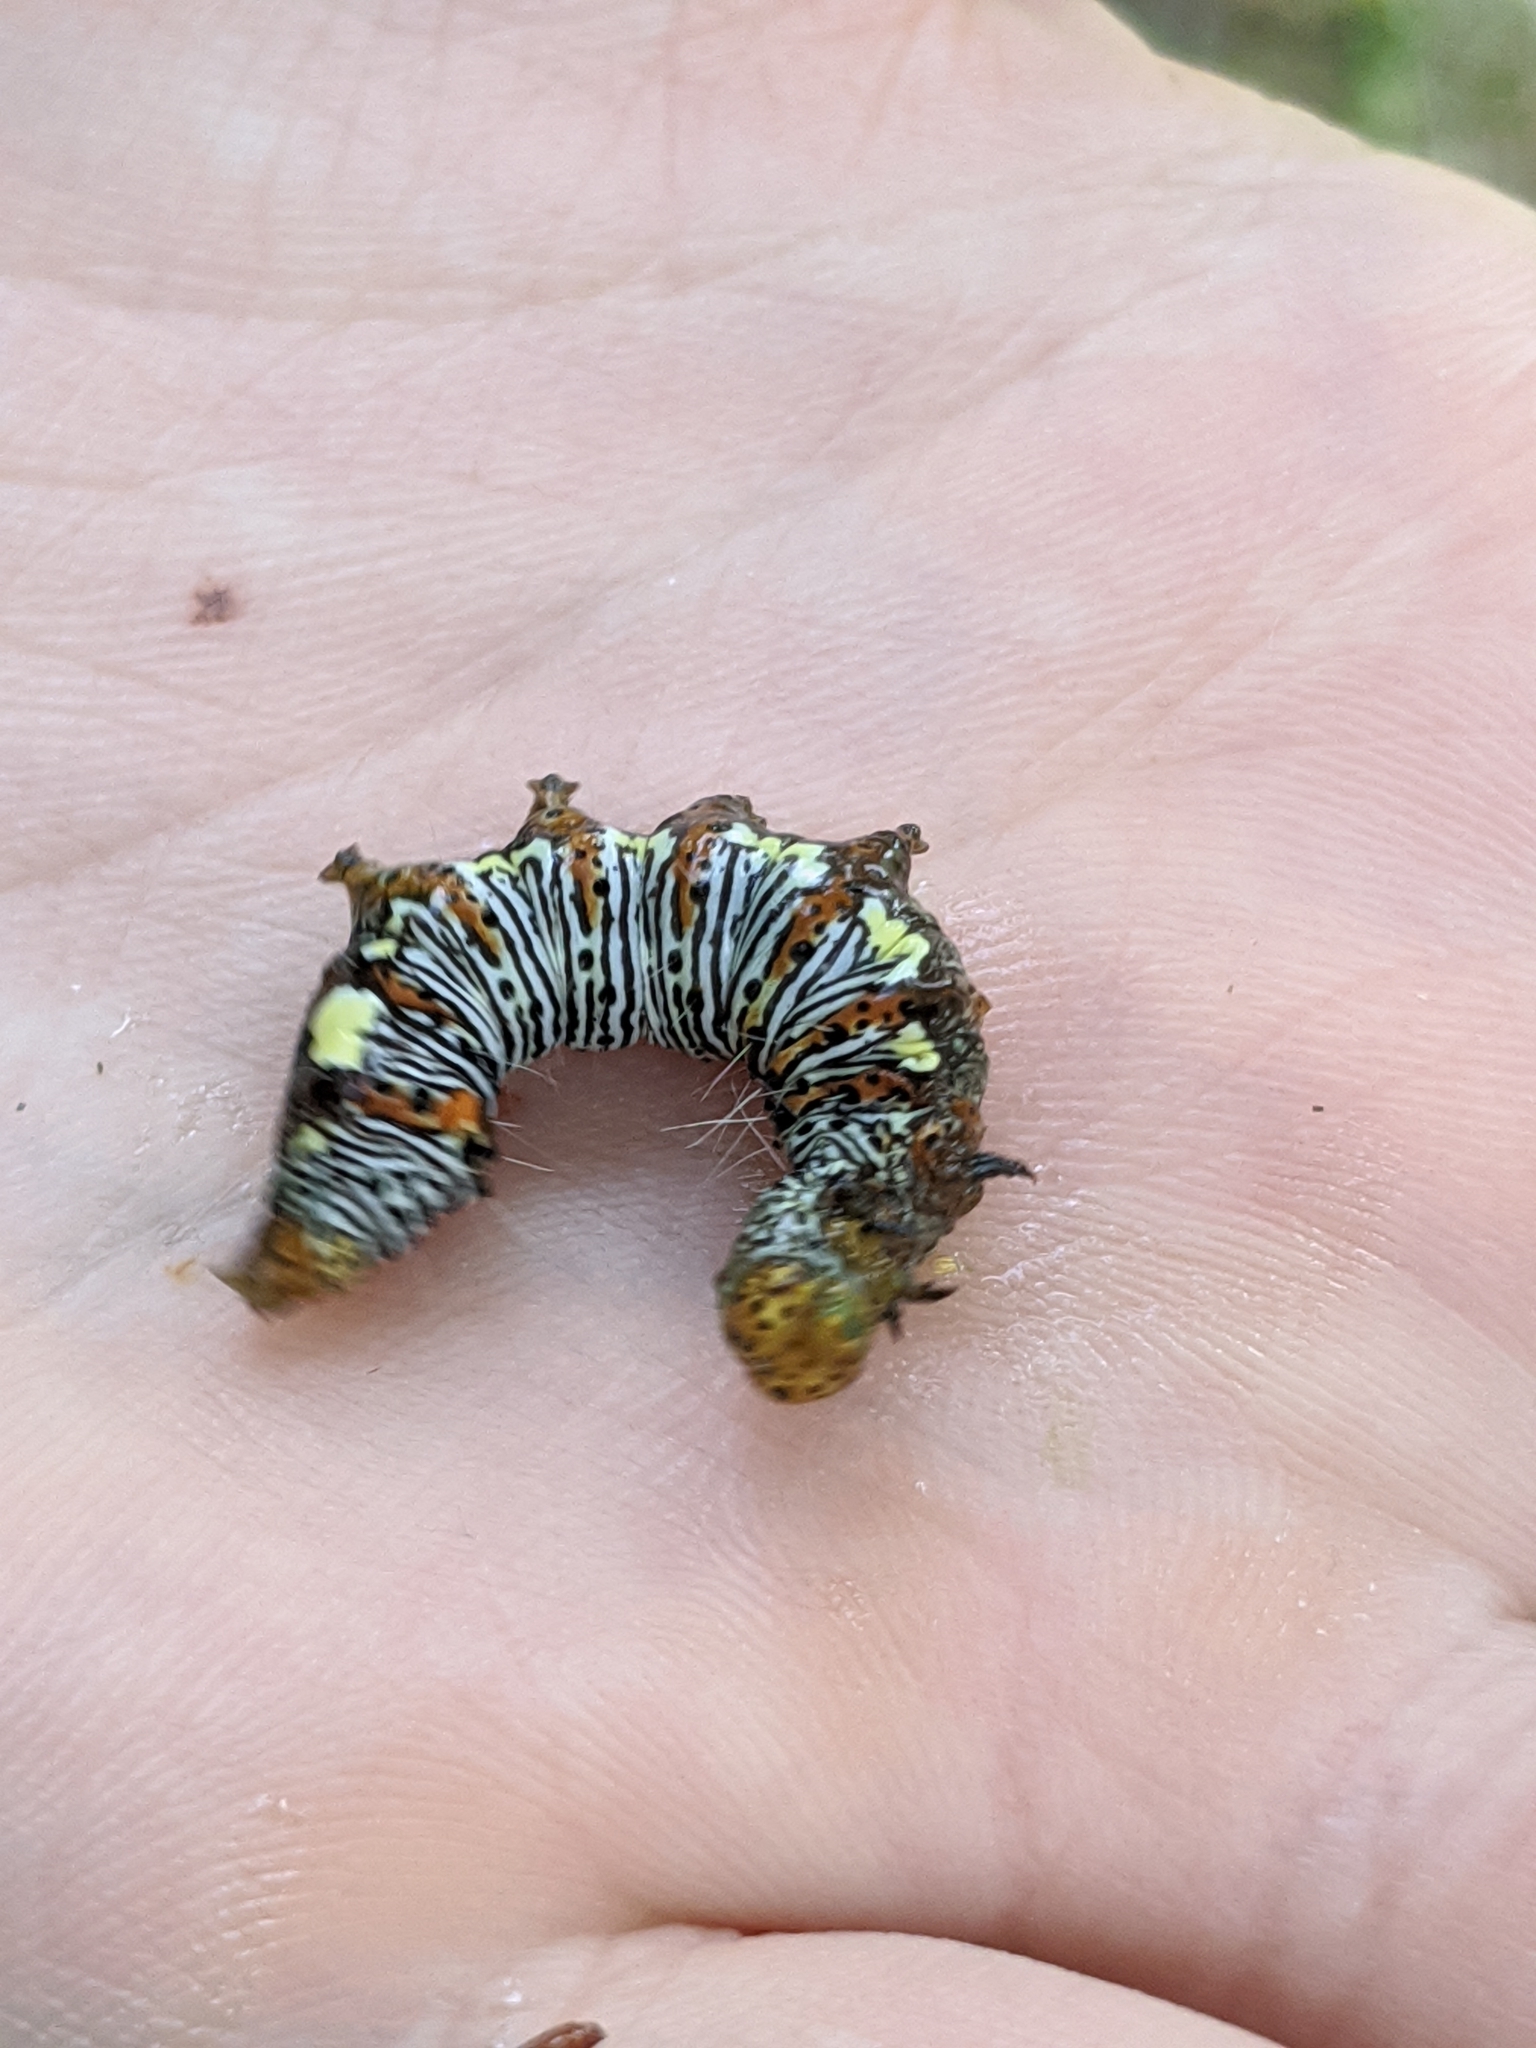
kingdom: Animalia
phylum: Arthropoda
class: Insecta
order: Lepidoptera
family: Noctuidae
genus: Alypia
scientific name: Alypia octomaculata
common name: Eight-spotted forester
